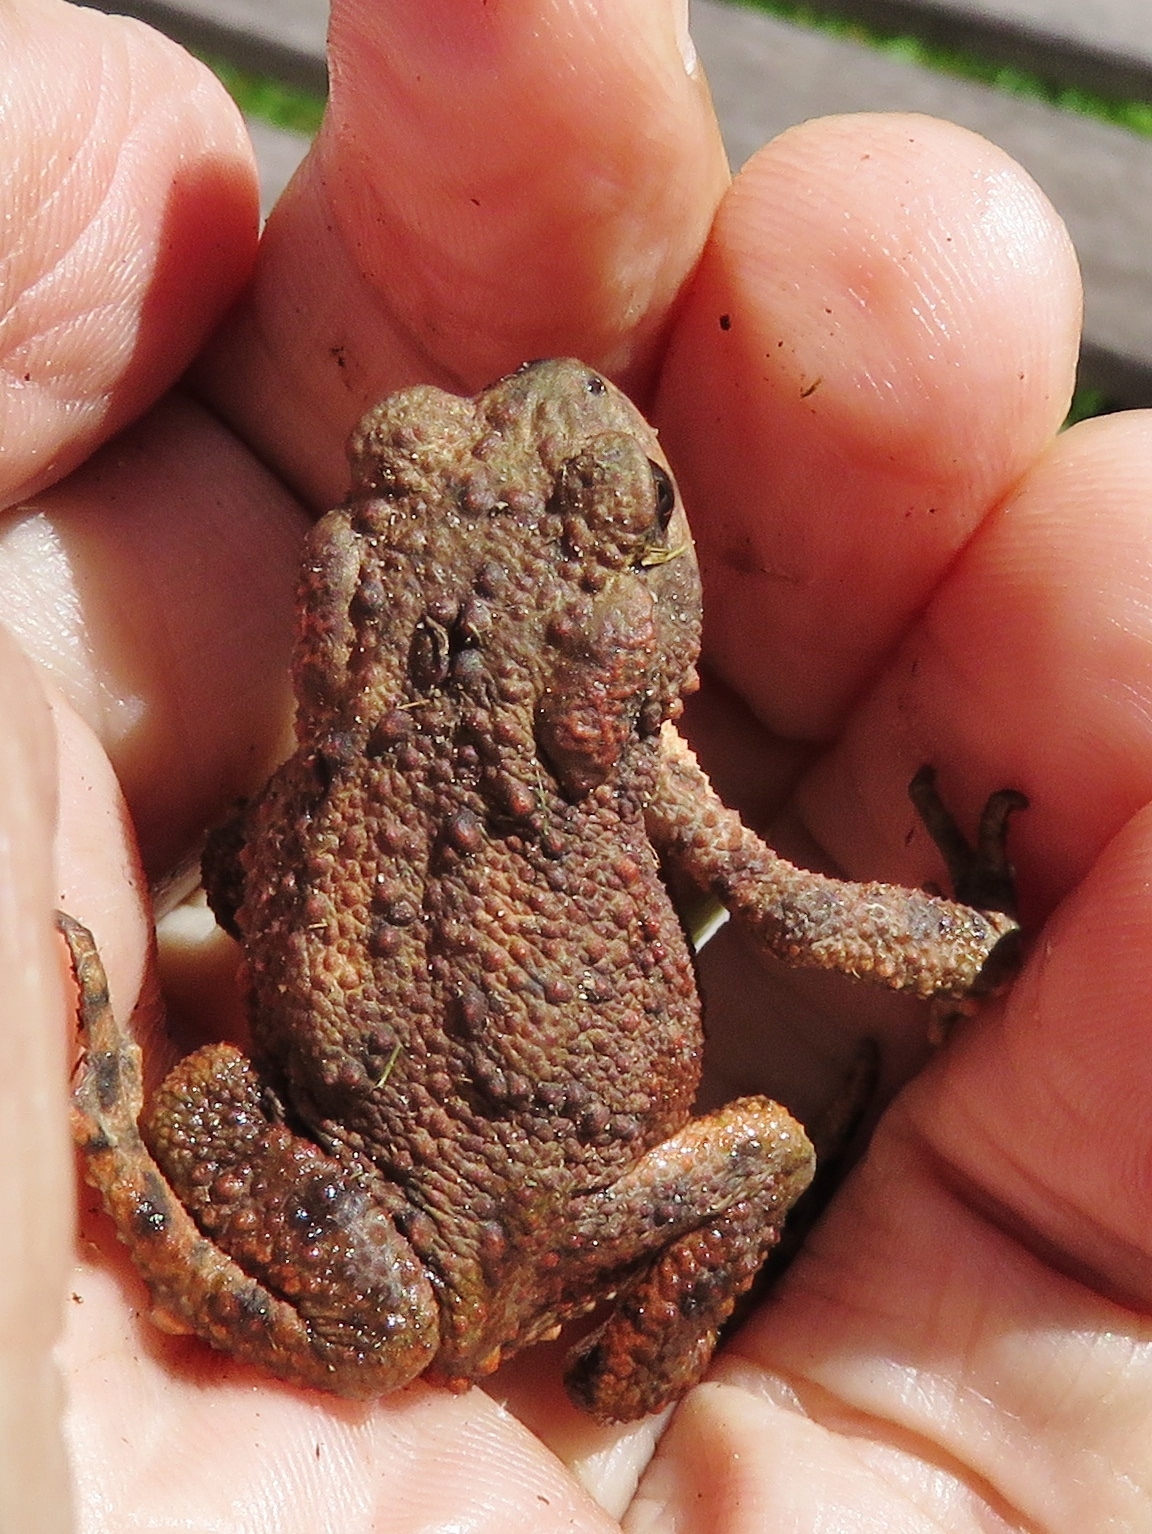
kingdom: Animalia
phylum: Chordata
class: Amphibia
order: Anura
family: Bufonidae
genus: Bufo
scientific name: Bufo bufo
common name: Common toad
